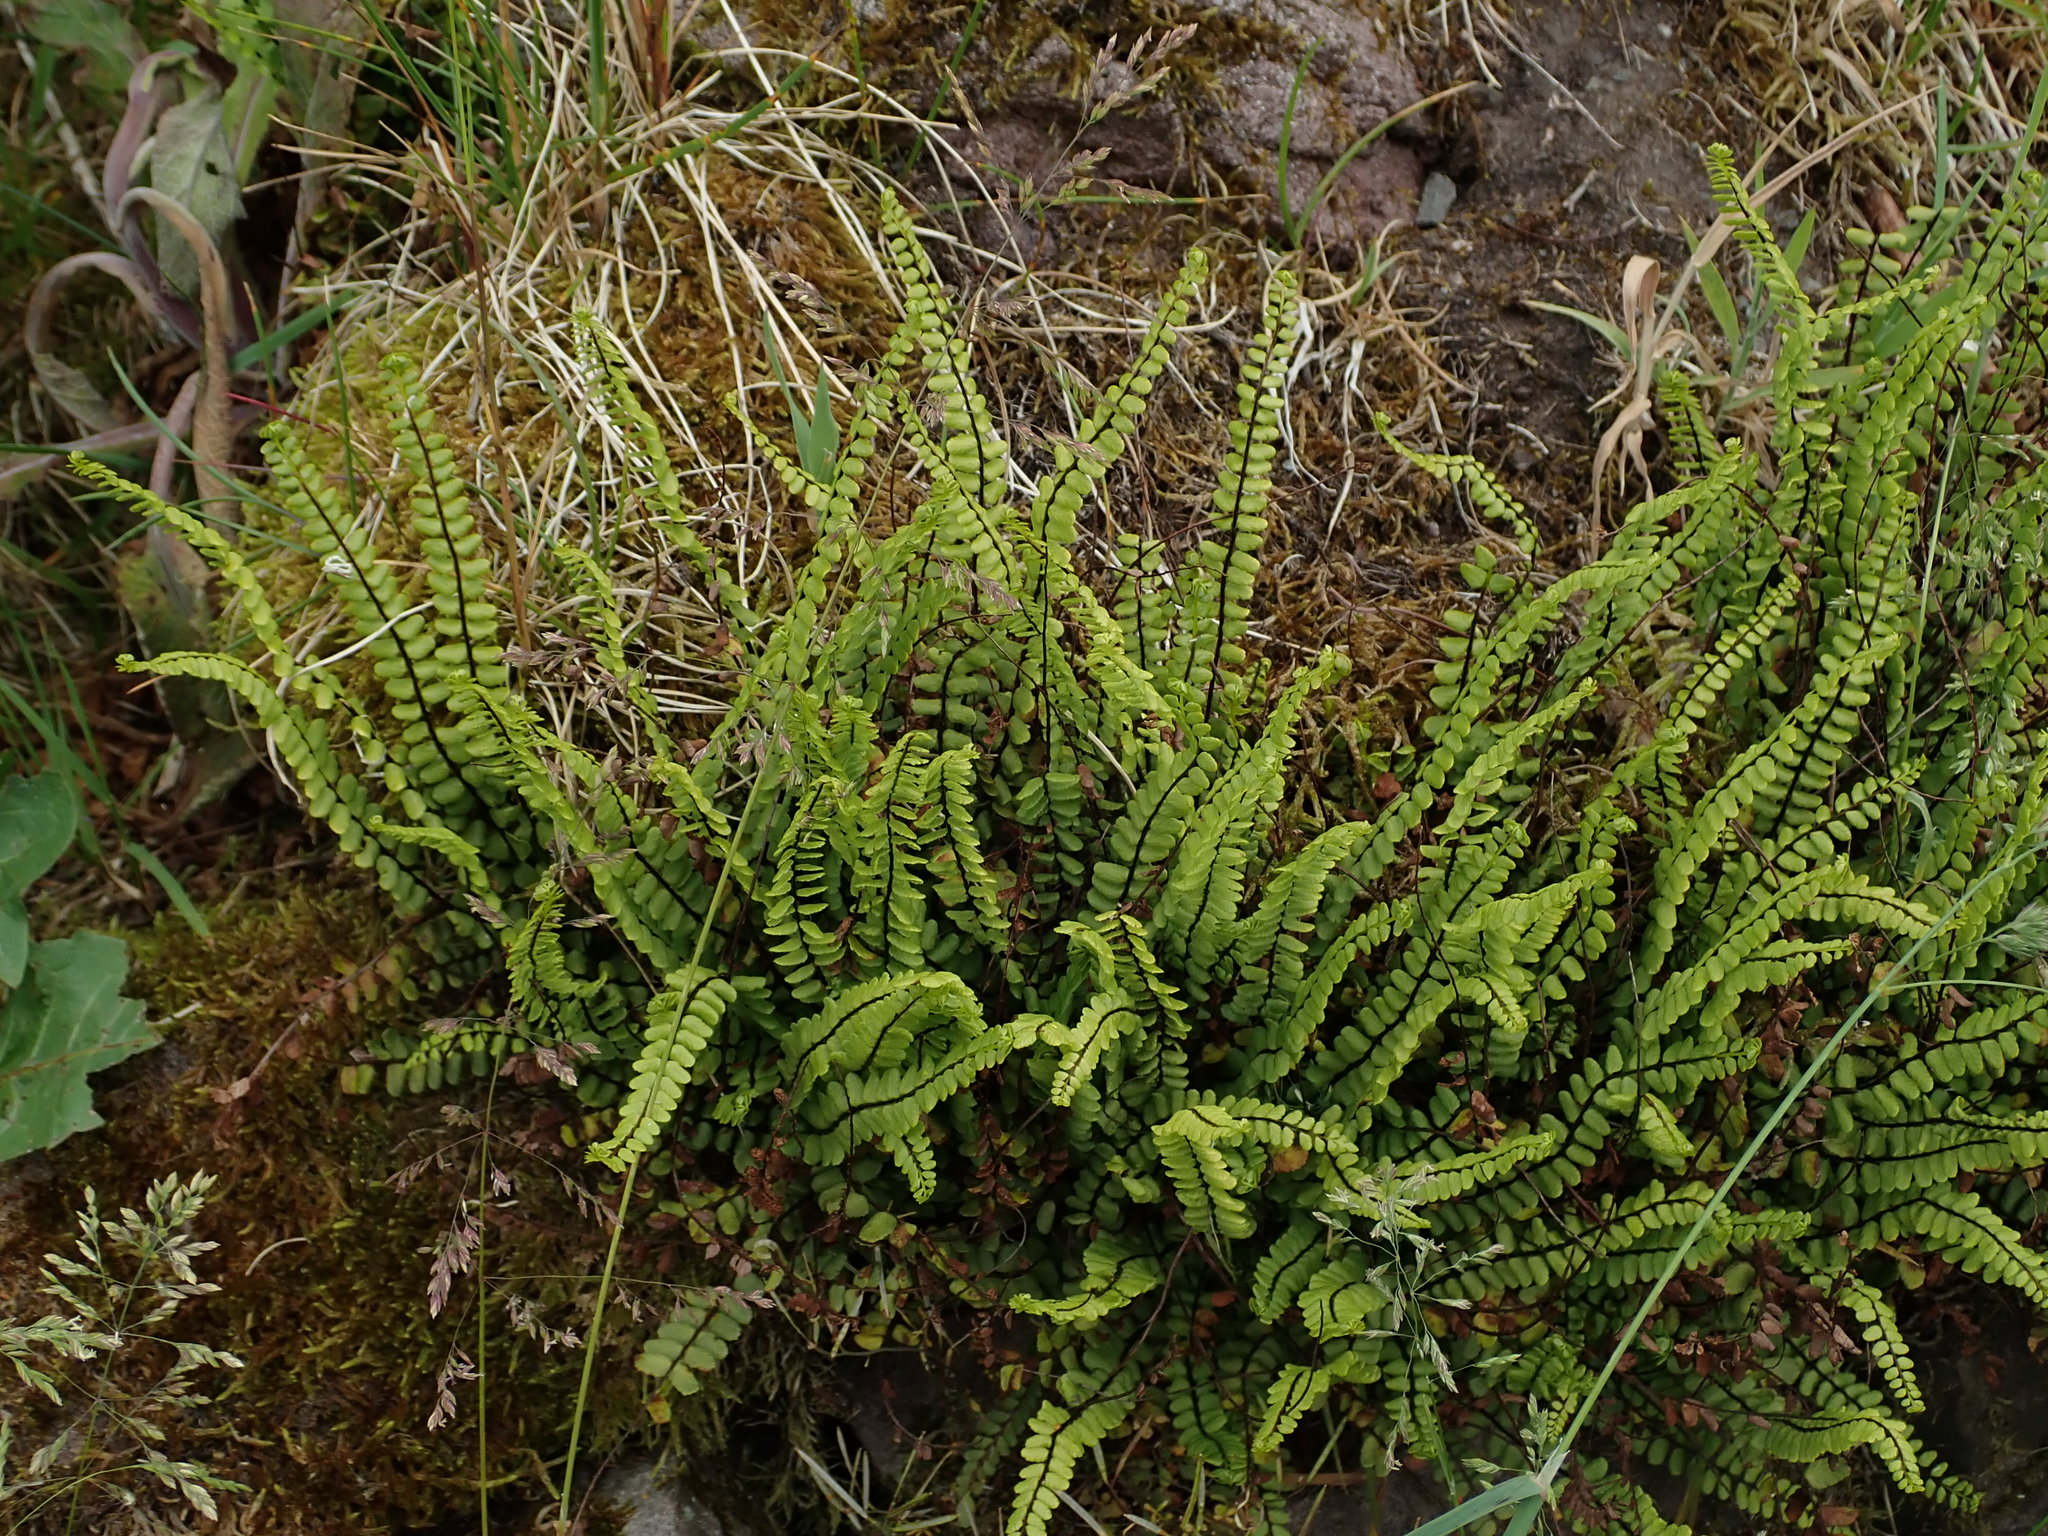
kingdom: Plantae
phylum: Tracheophyta
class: Polypodiopsida
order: Polypodiales
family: Aspleniaceae
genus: Asplenium
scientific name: Asplenium trichomanes
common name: Maidenhair spleenwort
